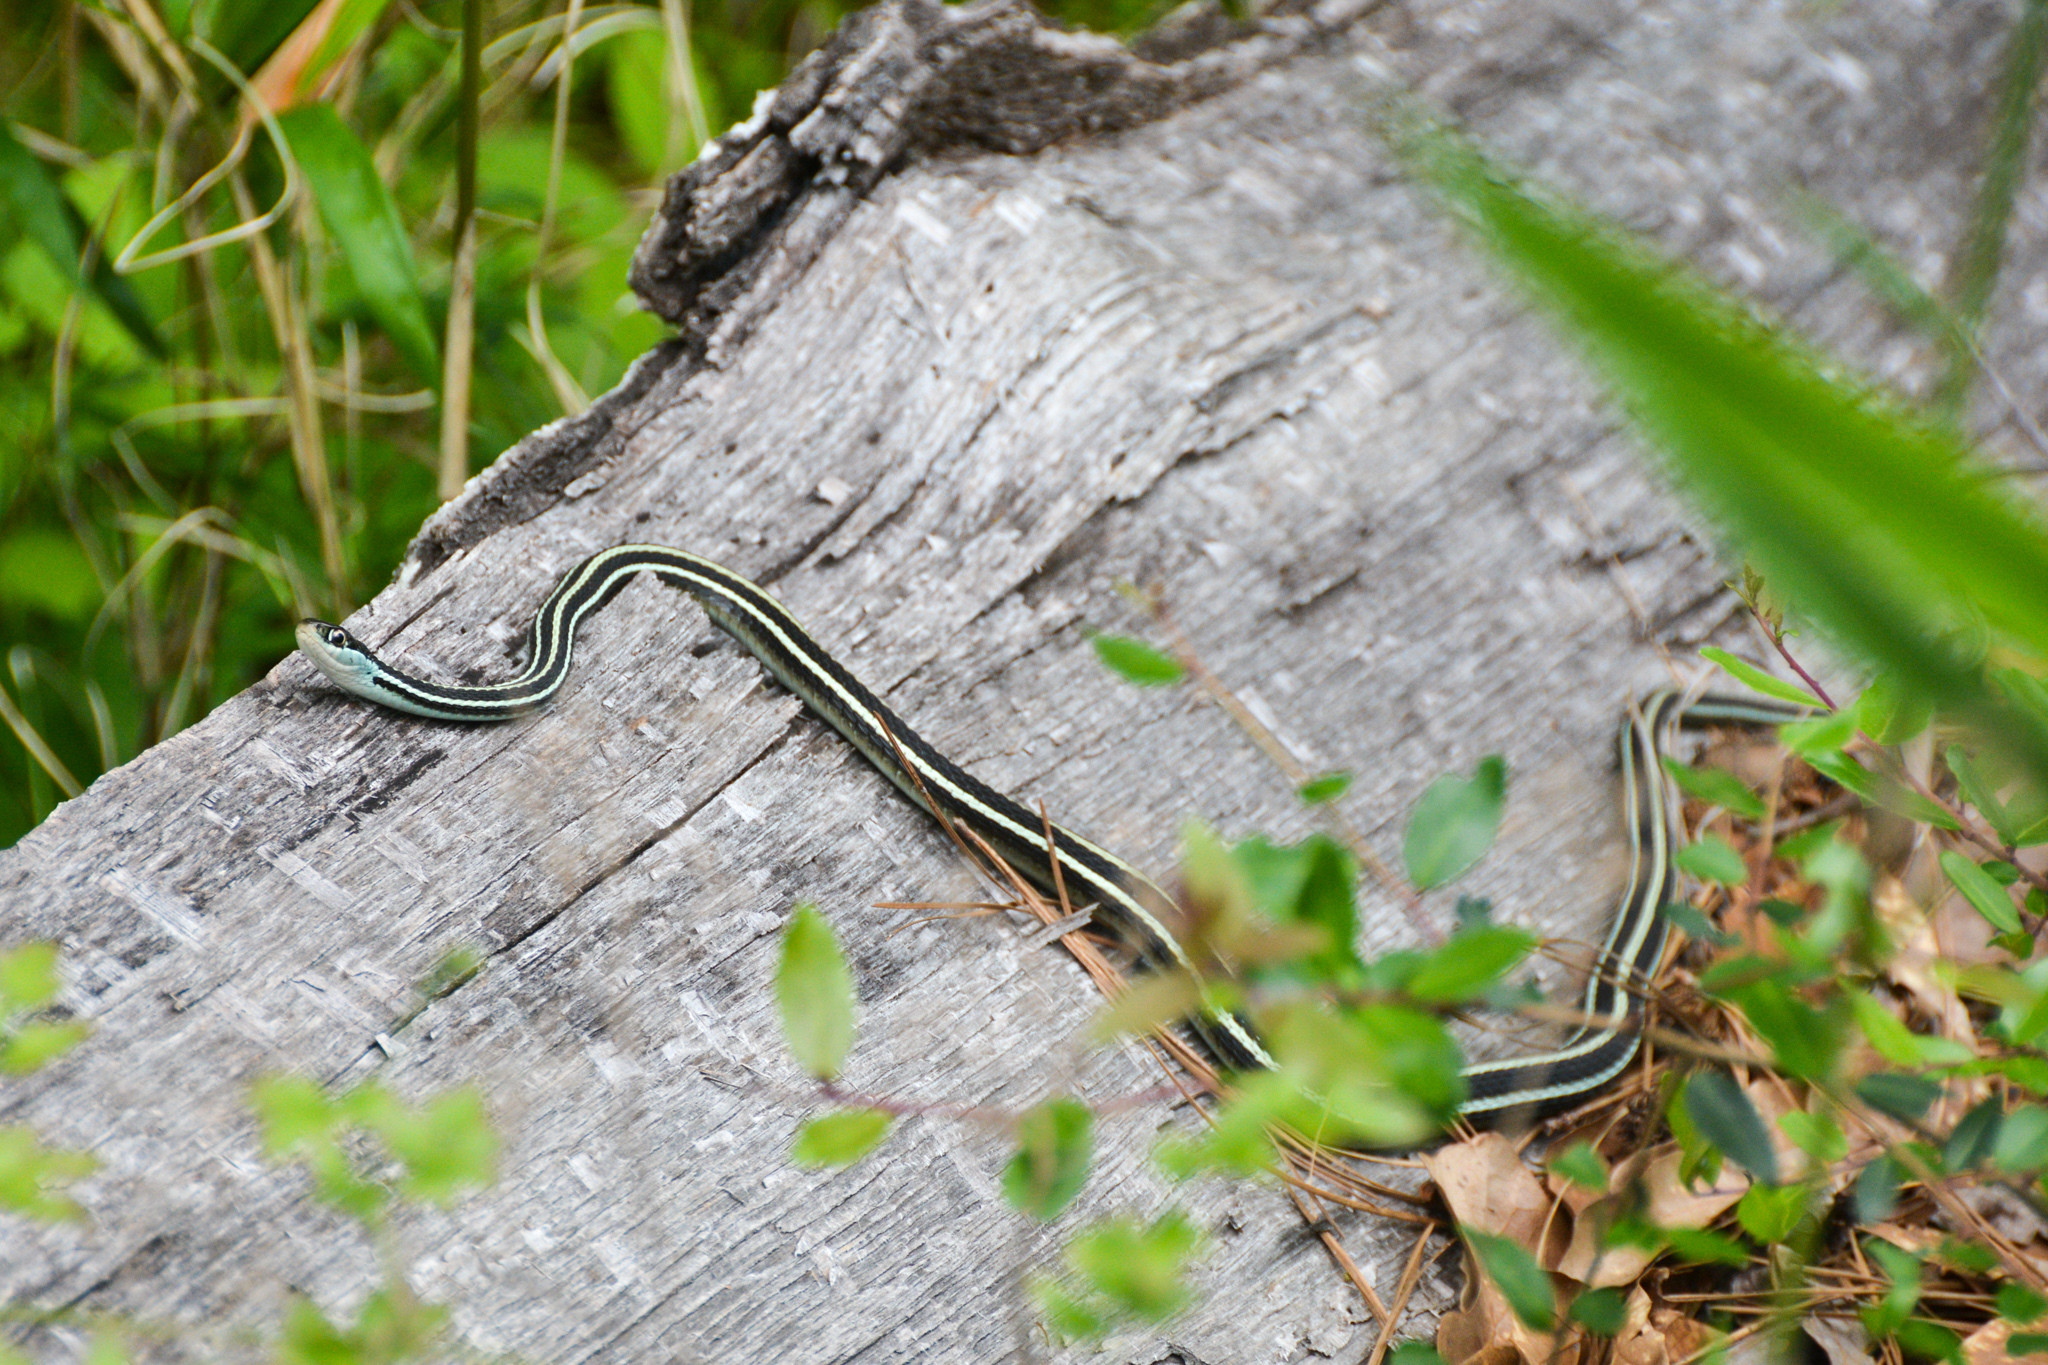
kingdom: Animalia
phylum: Chordata
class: Squamata
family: Colubridae
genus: Thamnophis
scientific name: Thamnophis proximus
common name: Western ribbon snake
